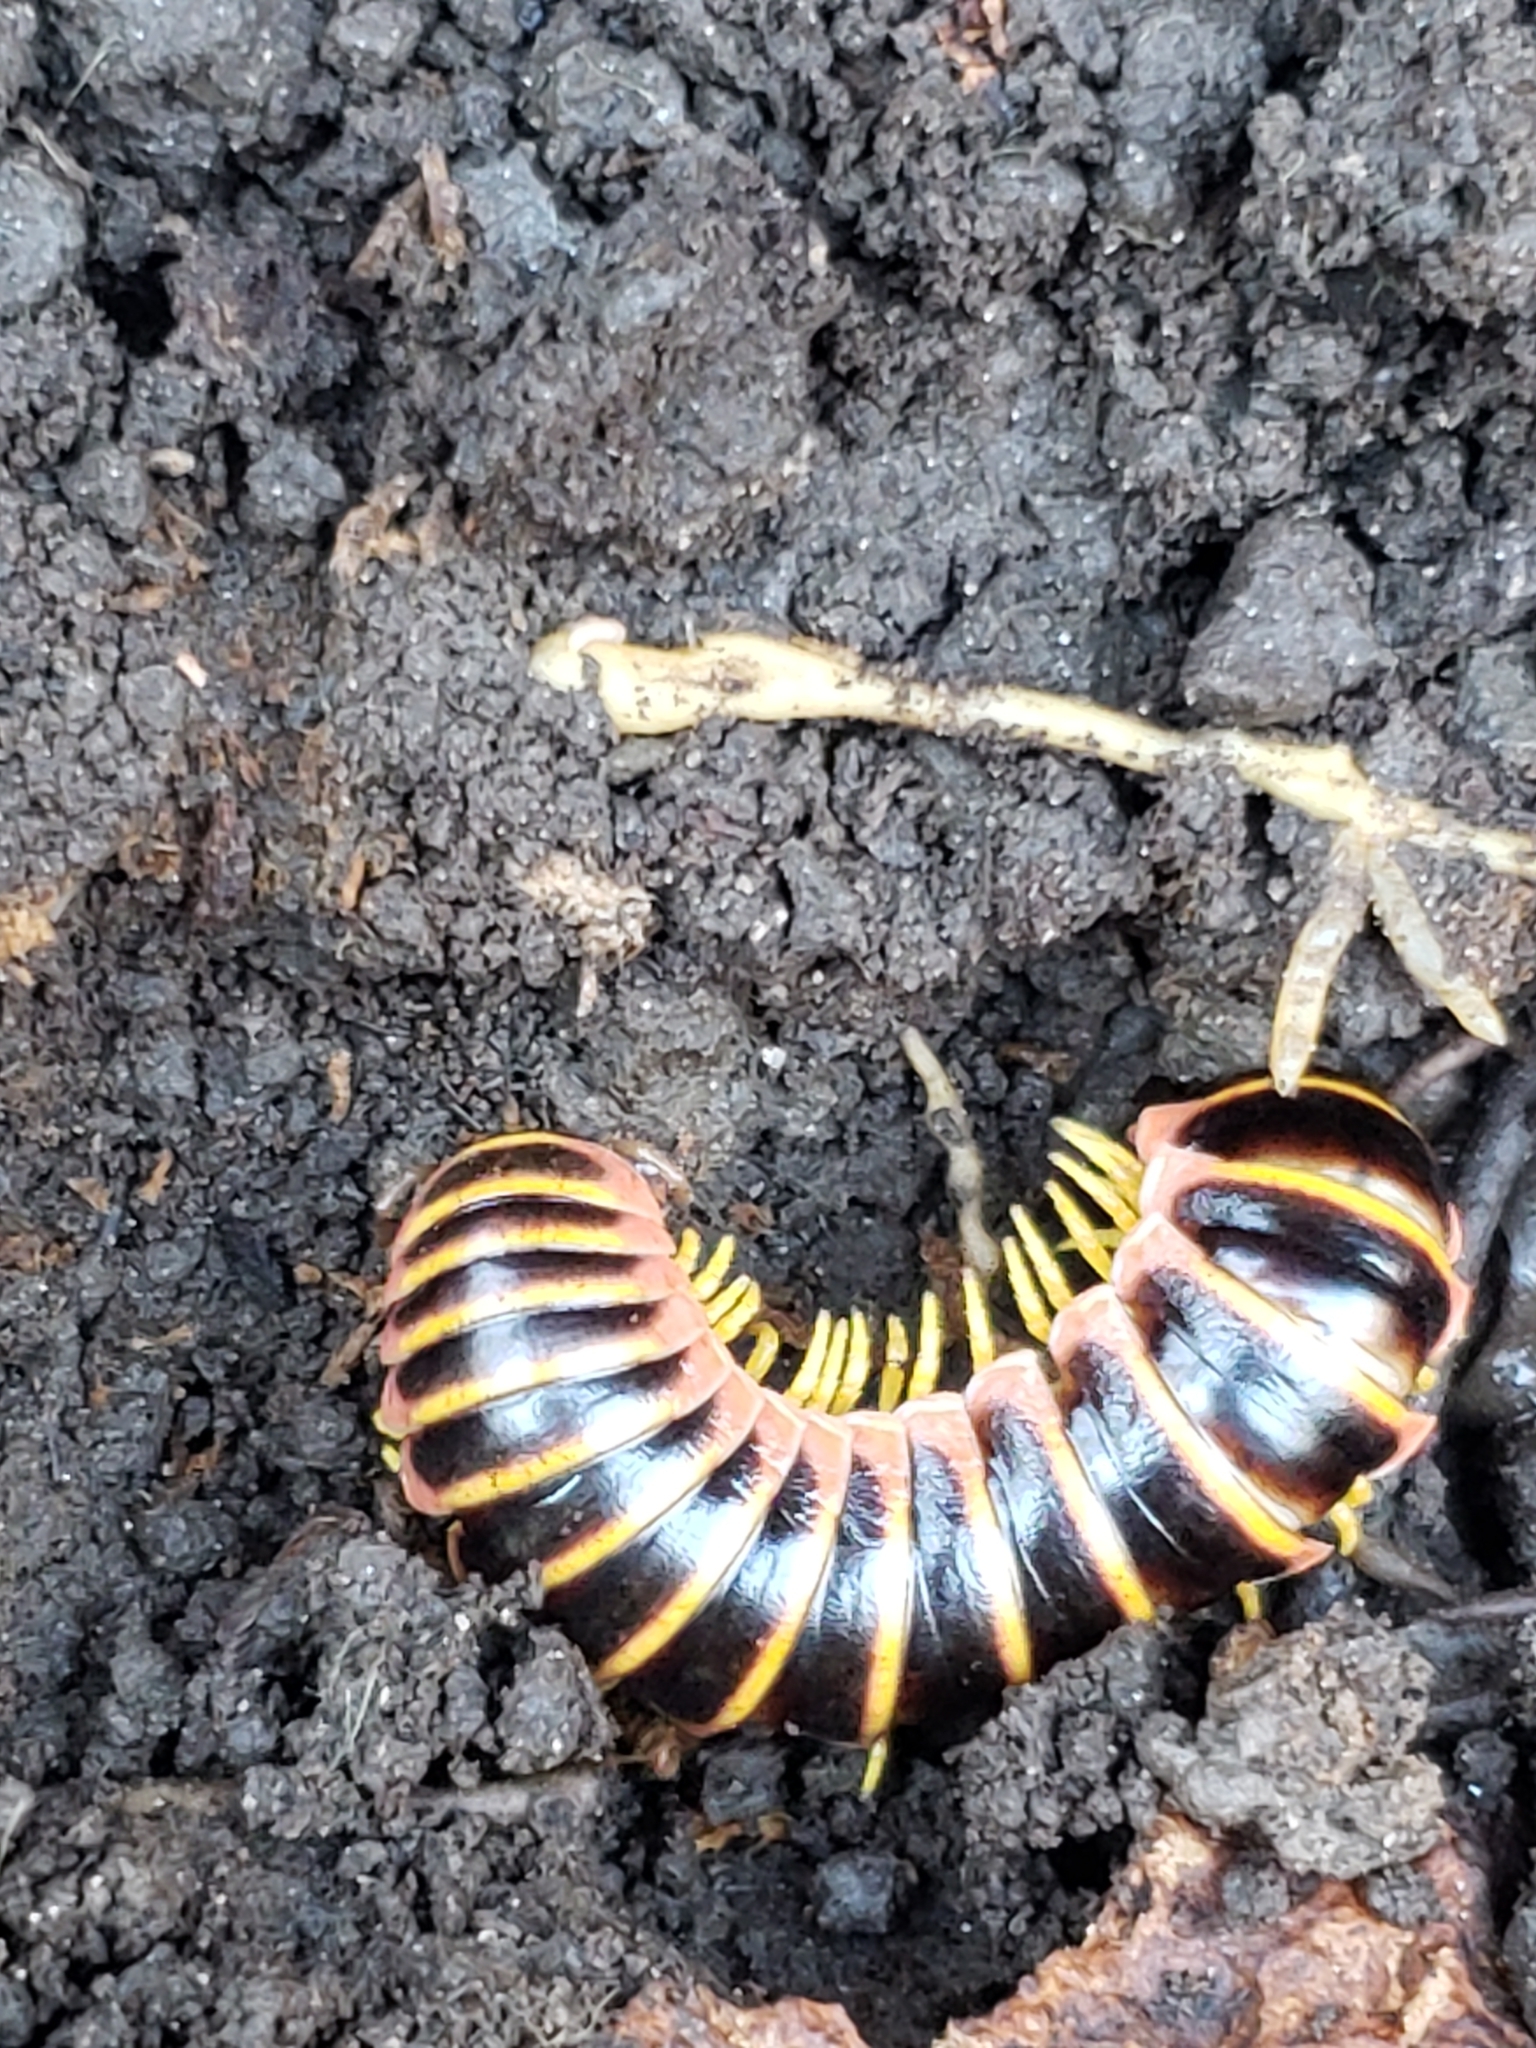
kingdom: Animalia
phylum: Arthropoda
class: Diplopoda
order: Polydesmida
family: Xystodesmidae
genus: Apheloria
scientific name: Apheloria virginiensis
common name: Black-and-gold flat millipede
